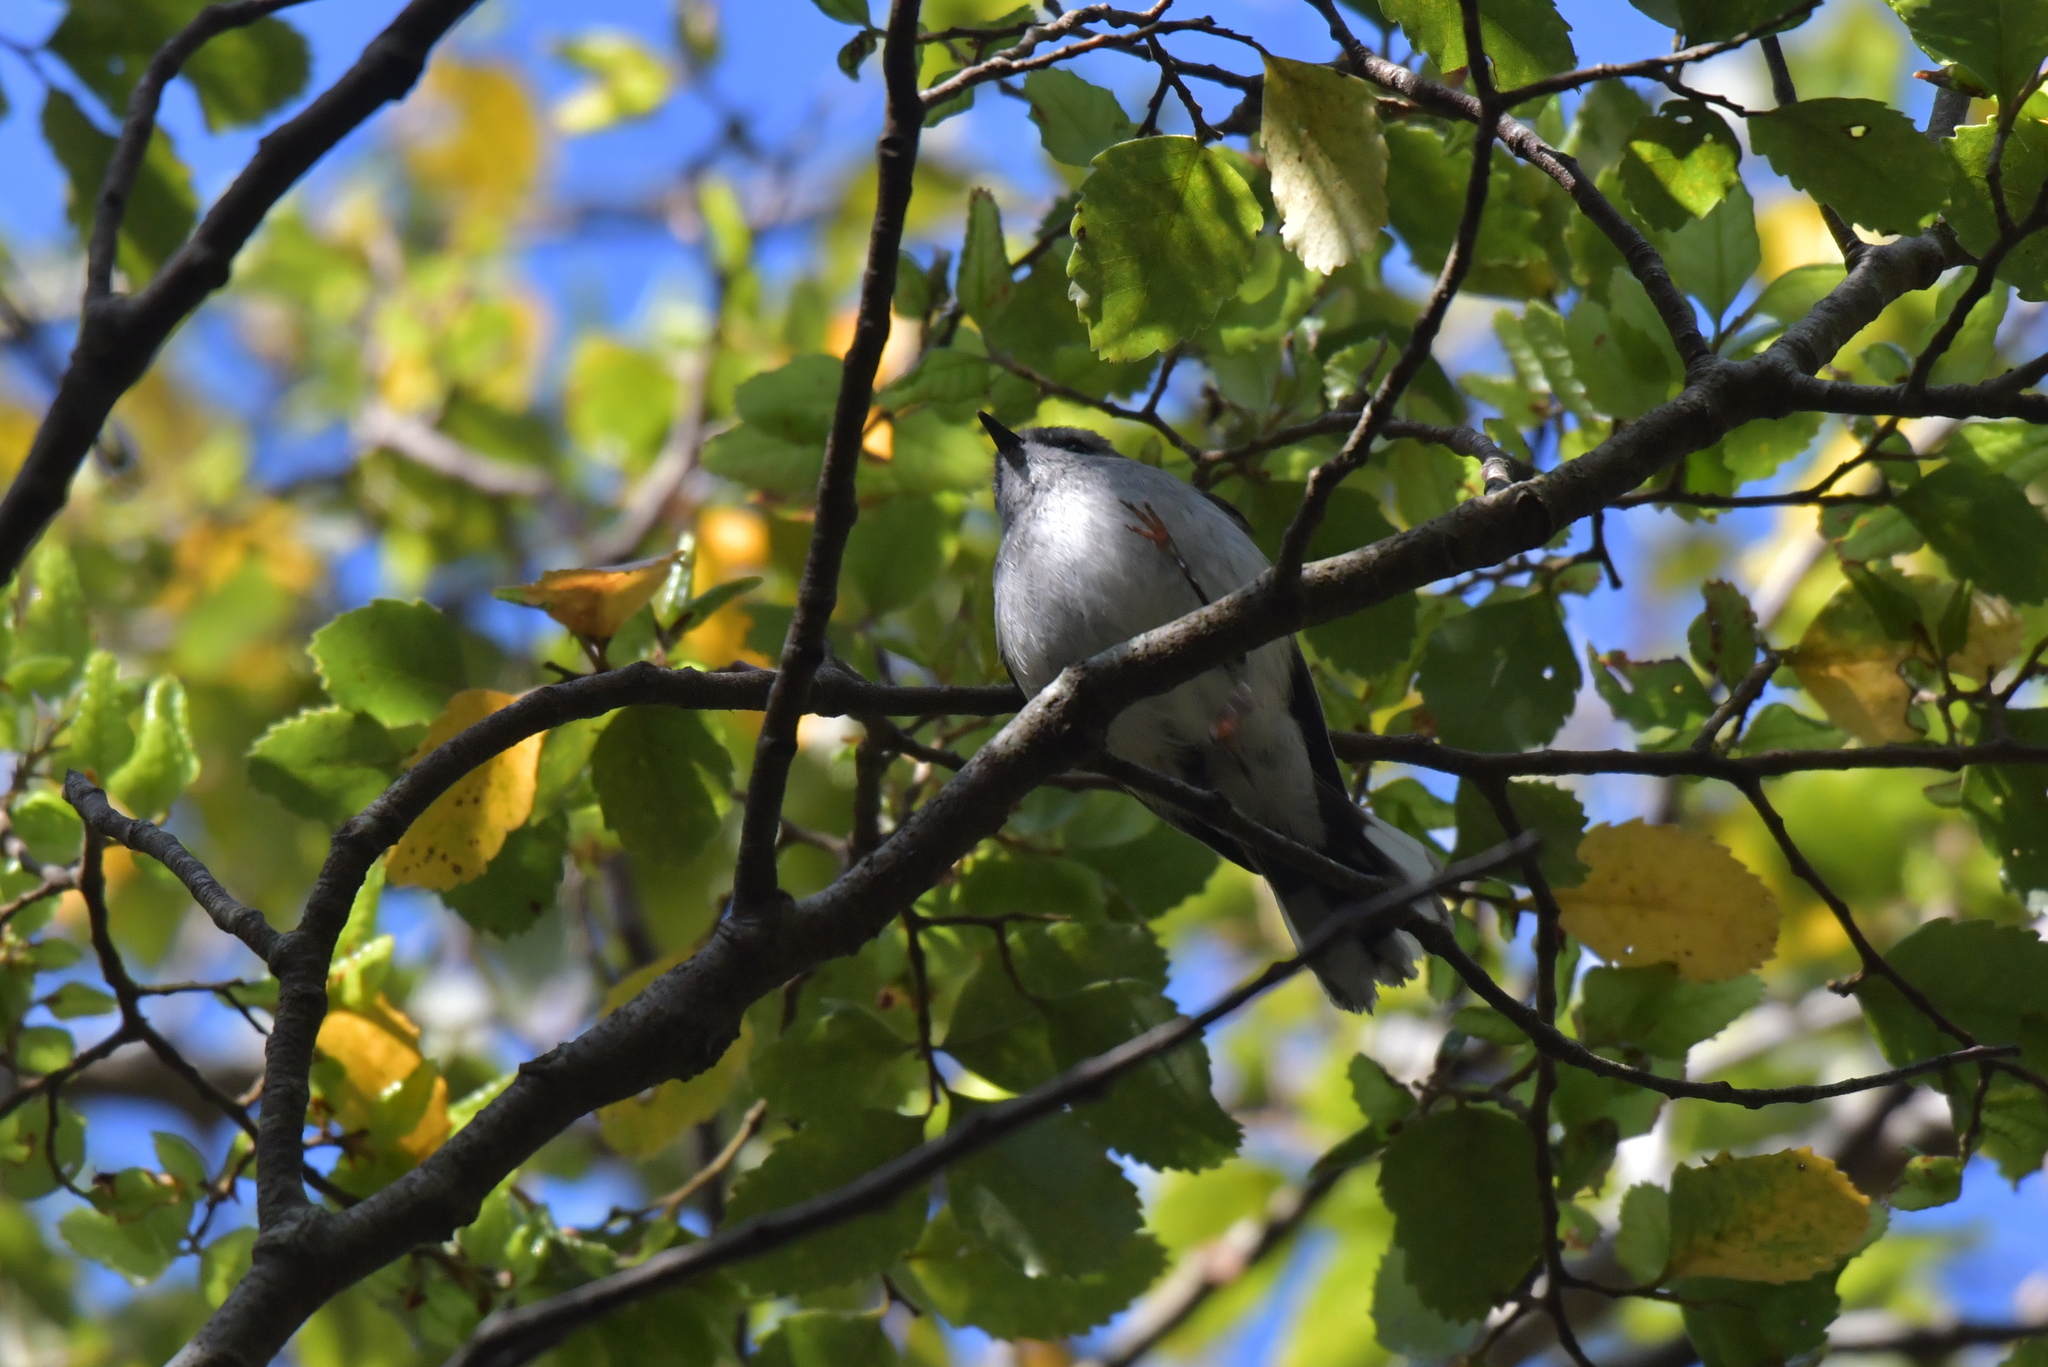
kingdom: Animalia
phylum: Chordata
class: Aves
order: Passeriformes
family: Acanthizidae
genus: Gerygone
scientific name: Gerygone igata
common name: Grey gerygone
